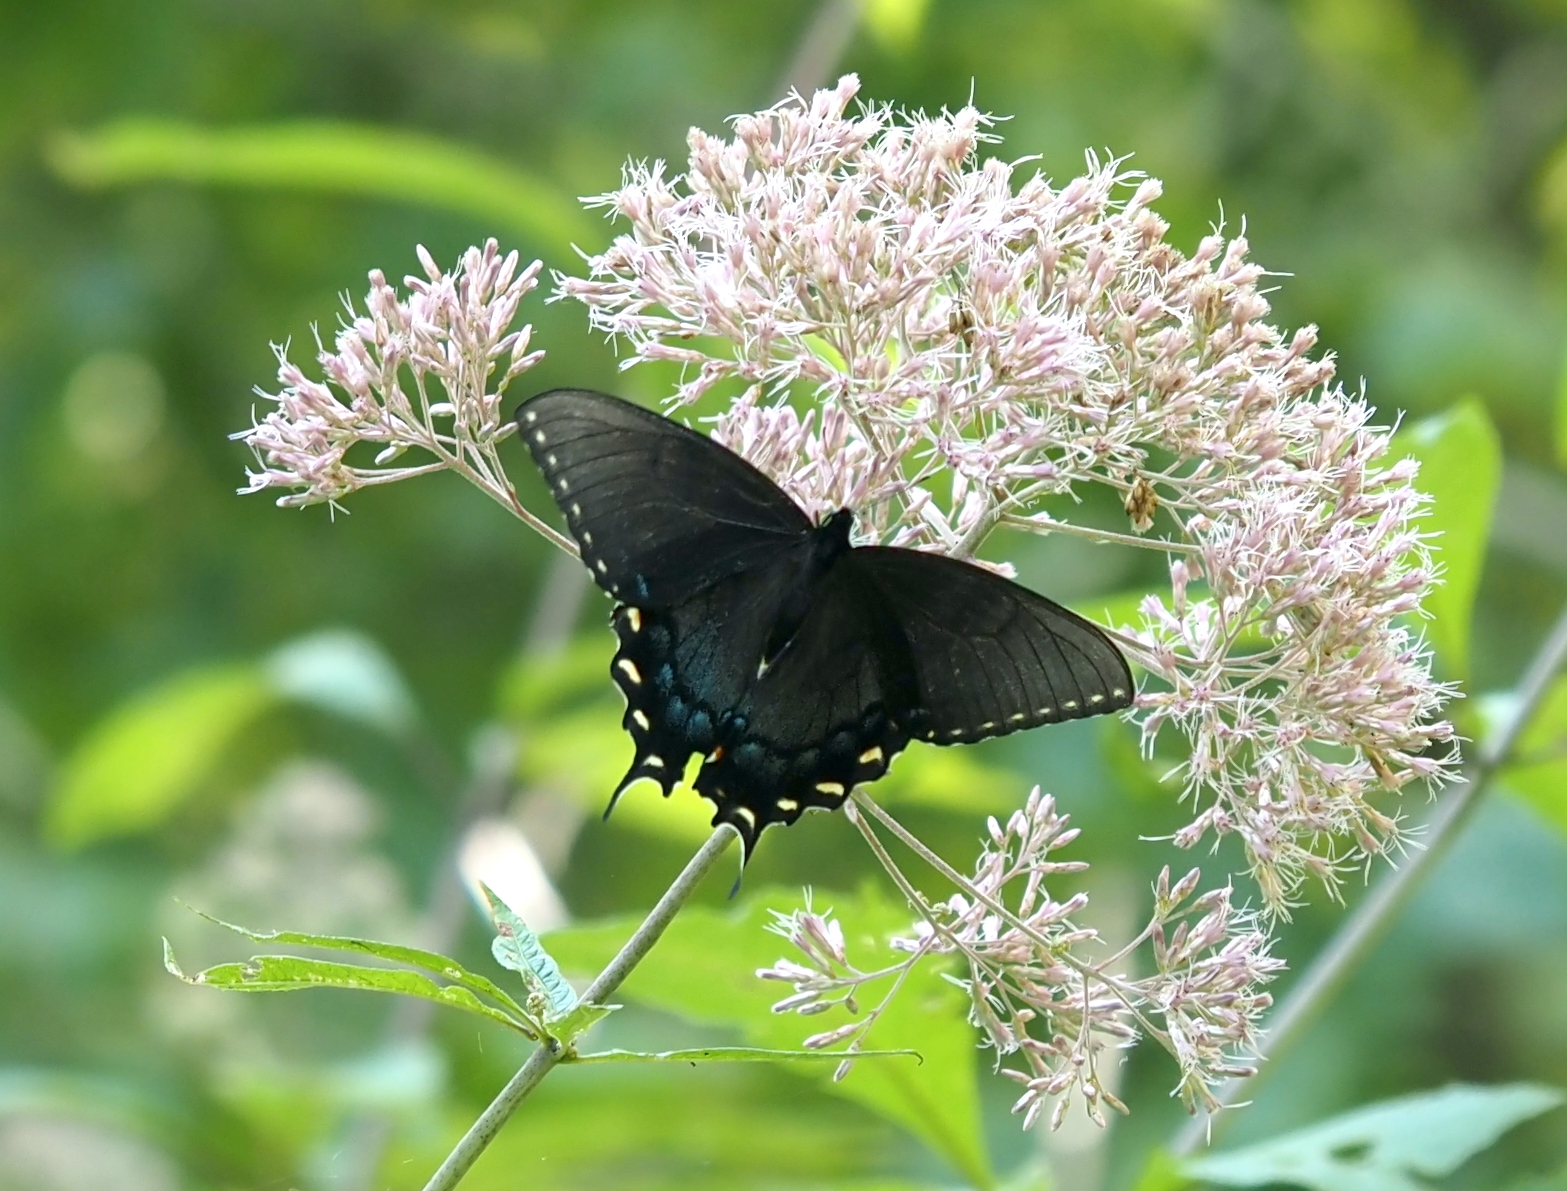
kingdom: Animalia
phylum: Arthropoda
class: Insecta
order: Lepidoptera
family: Papilionidae
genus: Papilio
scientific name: Papilio glaucus
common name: Tiger swallowtail
